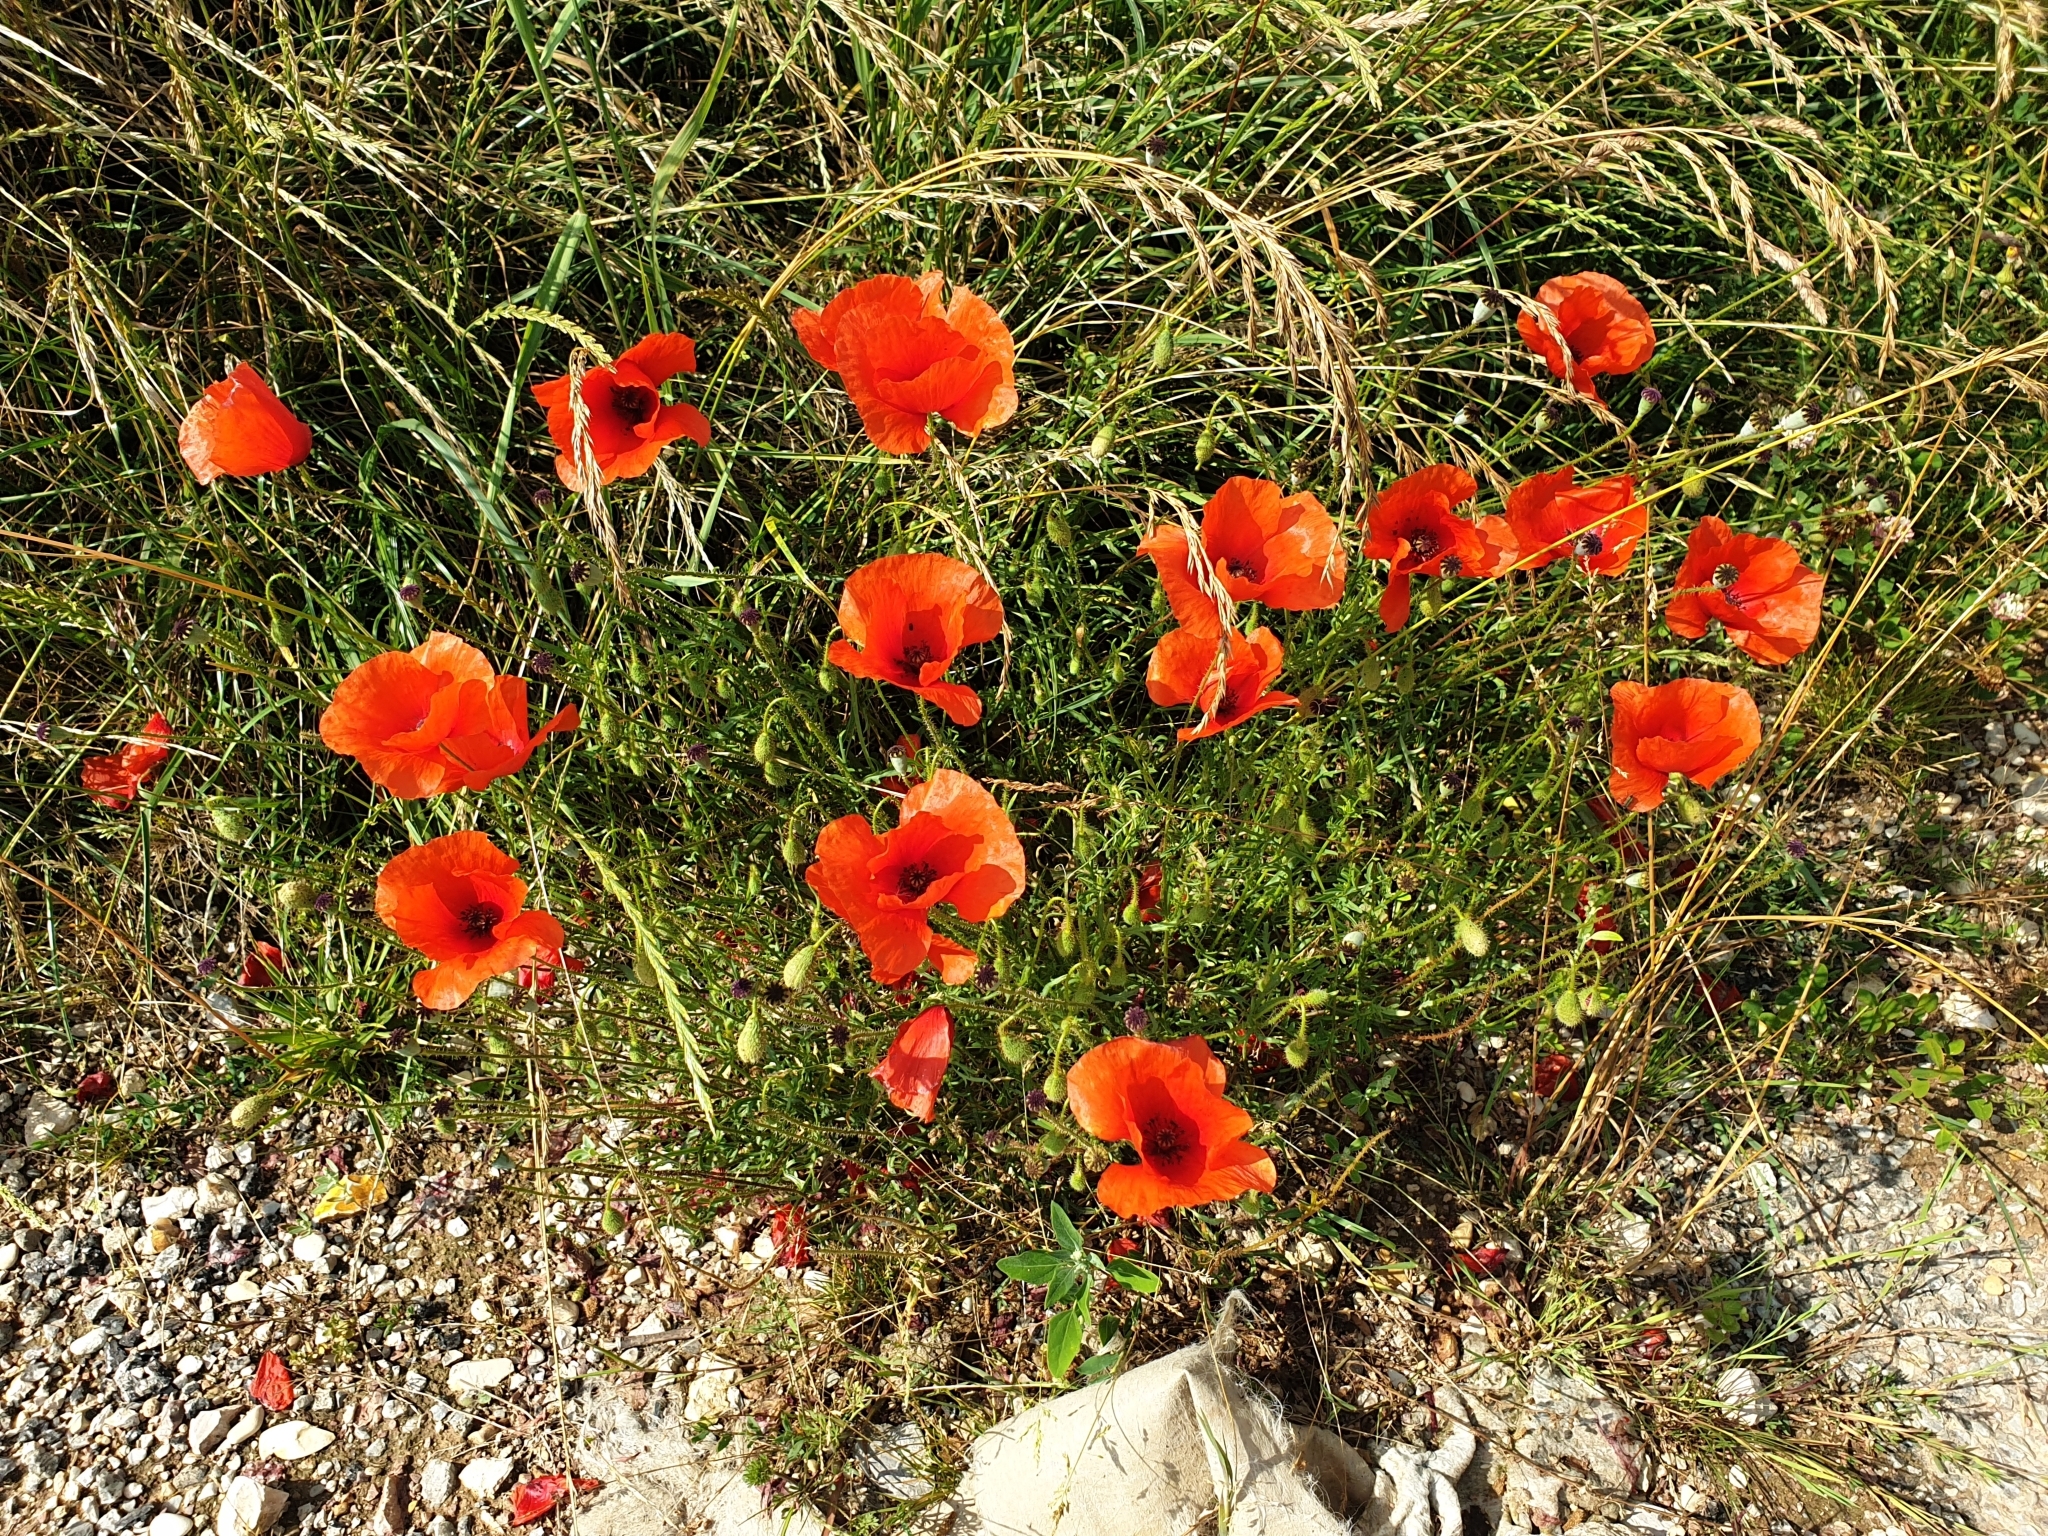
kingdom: Plantae
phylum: Tracheophyta
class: Magnoliopsida
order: Ranunculales
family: Papaveraceae
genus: Papaver
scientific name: Papaver rhoeas
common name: Corn poppy
